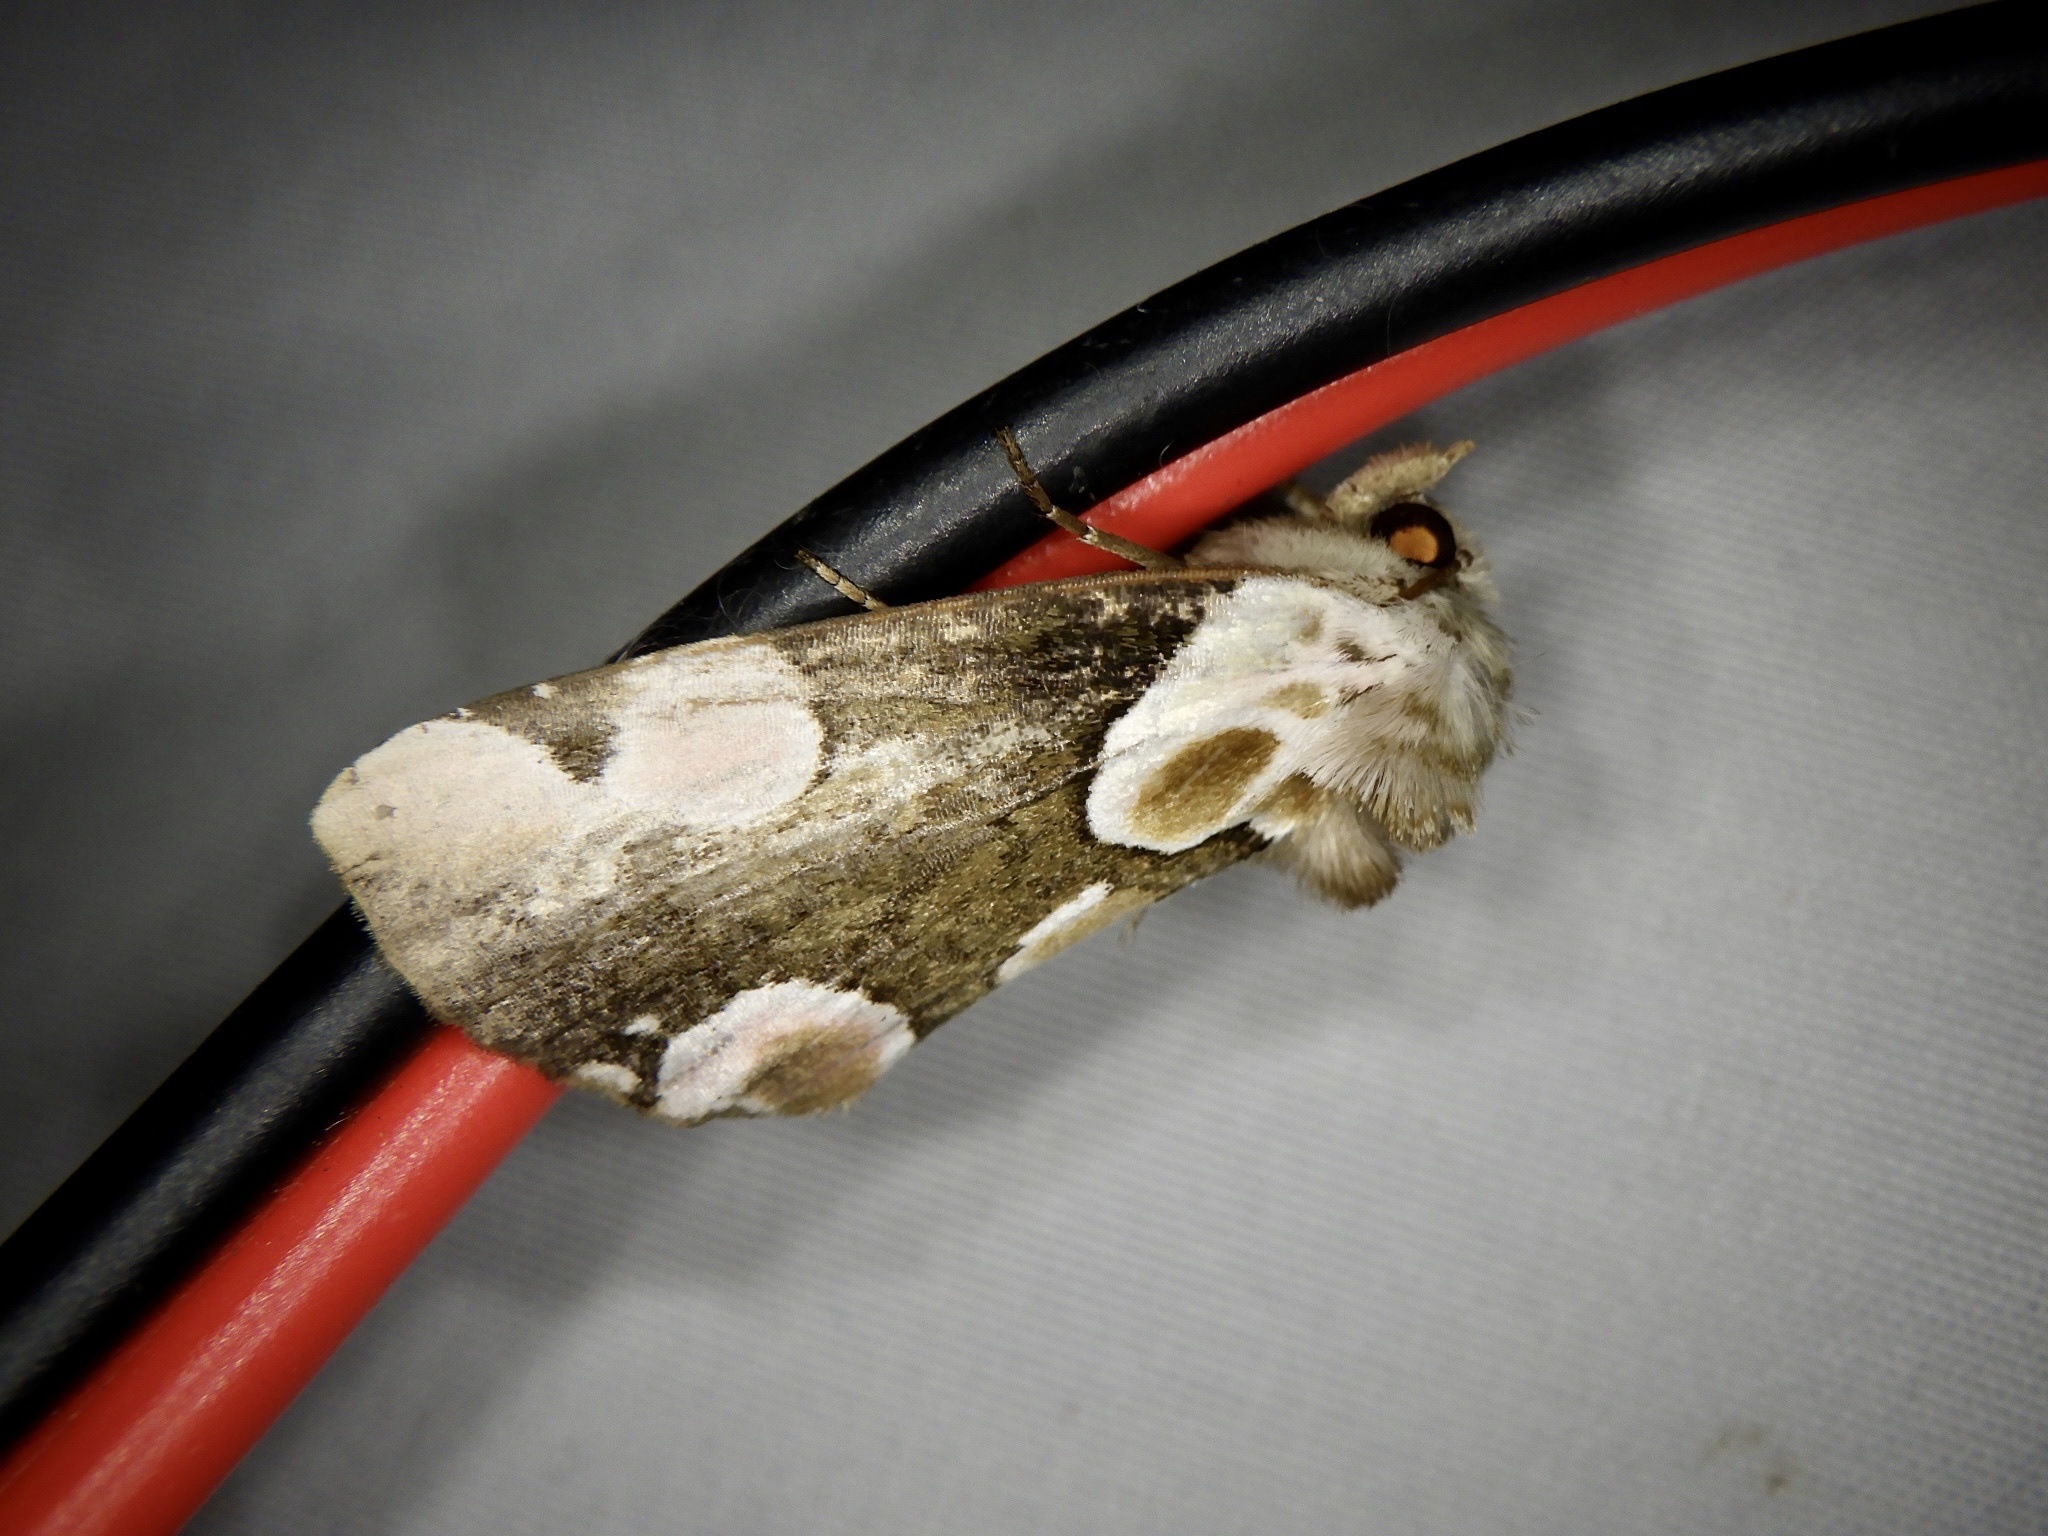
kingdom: Animalia
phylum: Arthropoda
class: Insecta
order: Lepidoptera
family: Drepanidae
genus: Thyatira
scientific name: Thyatira batis
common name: Peach blossom
